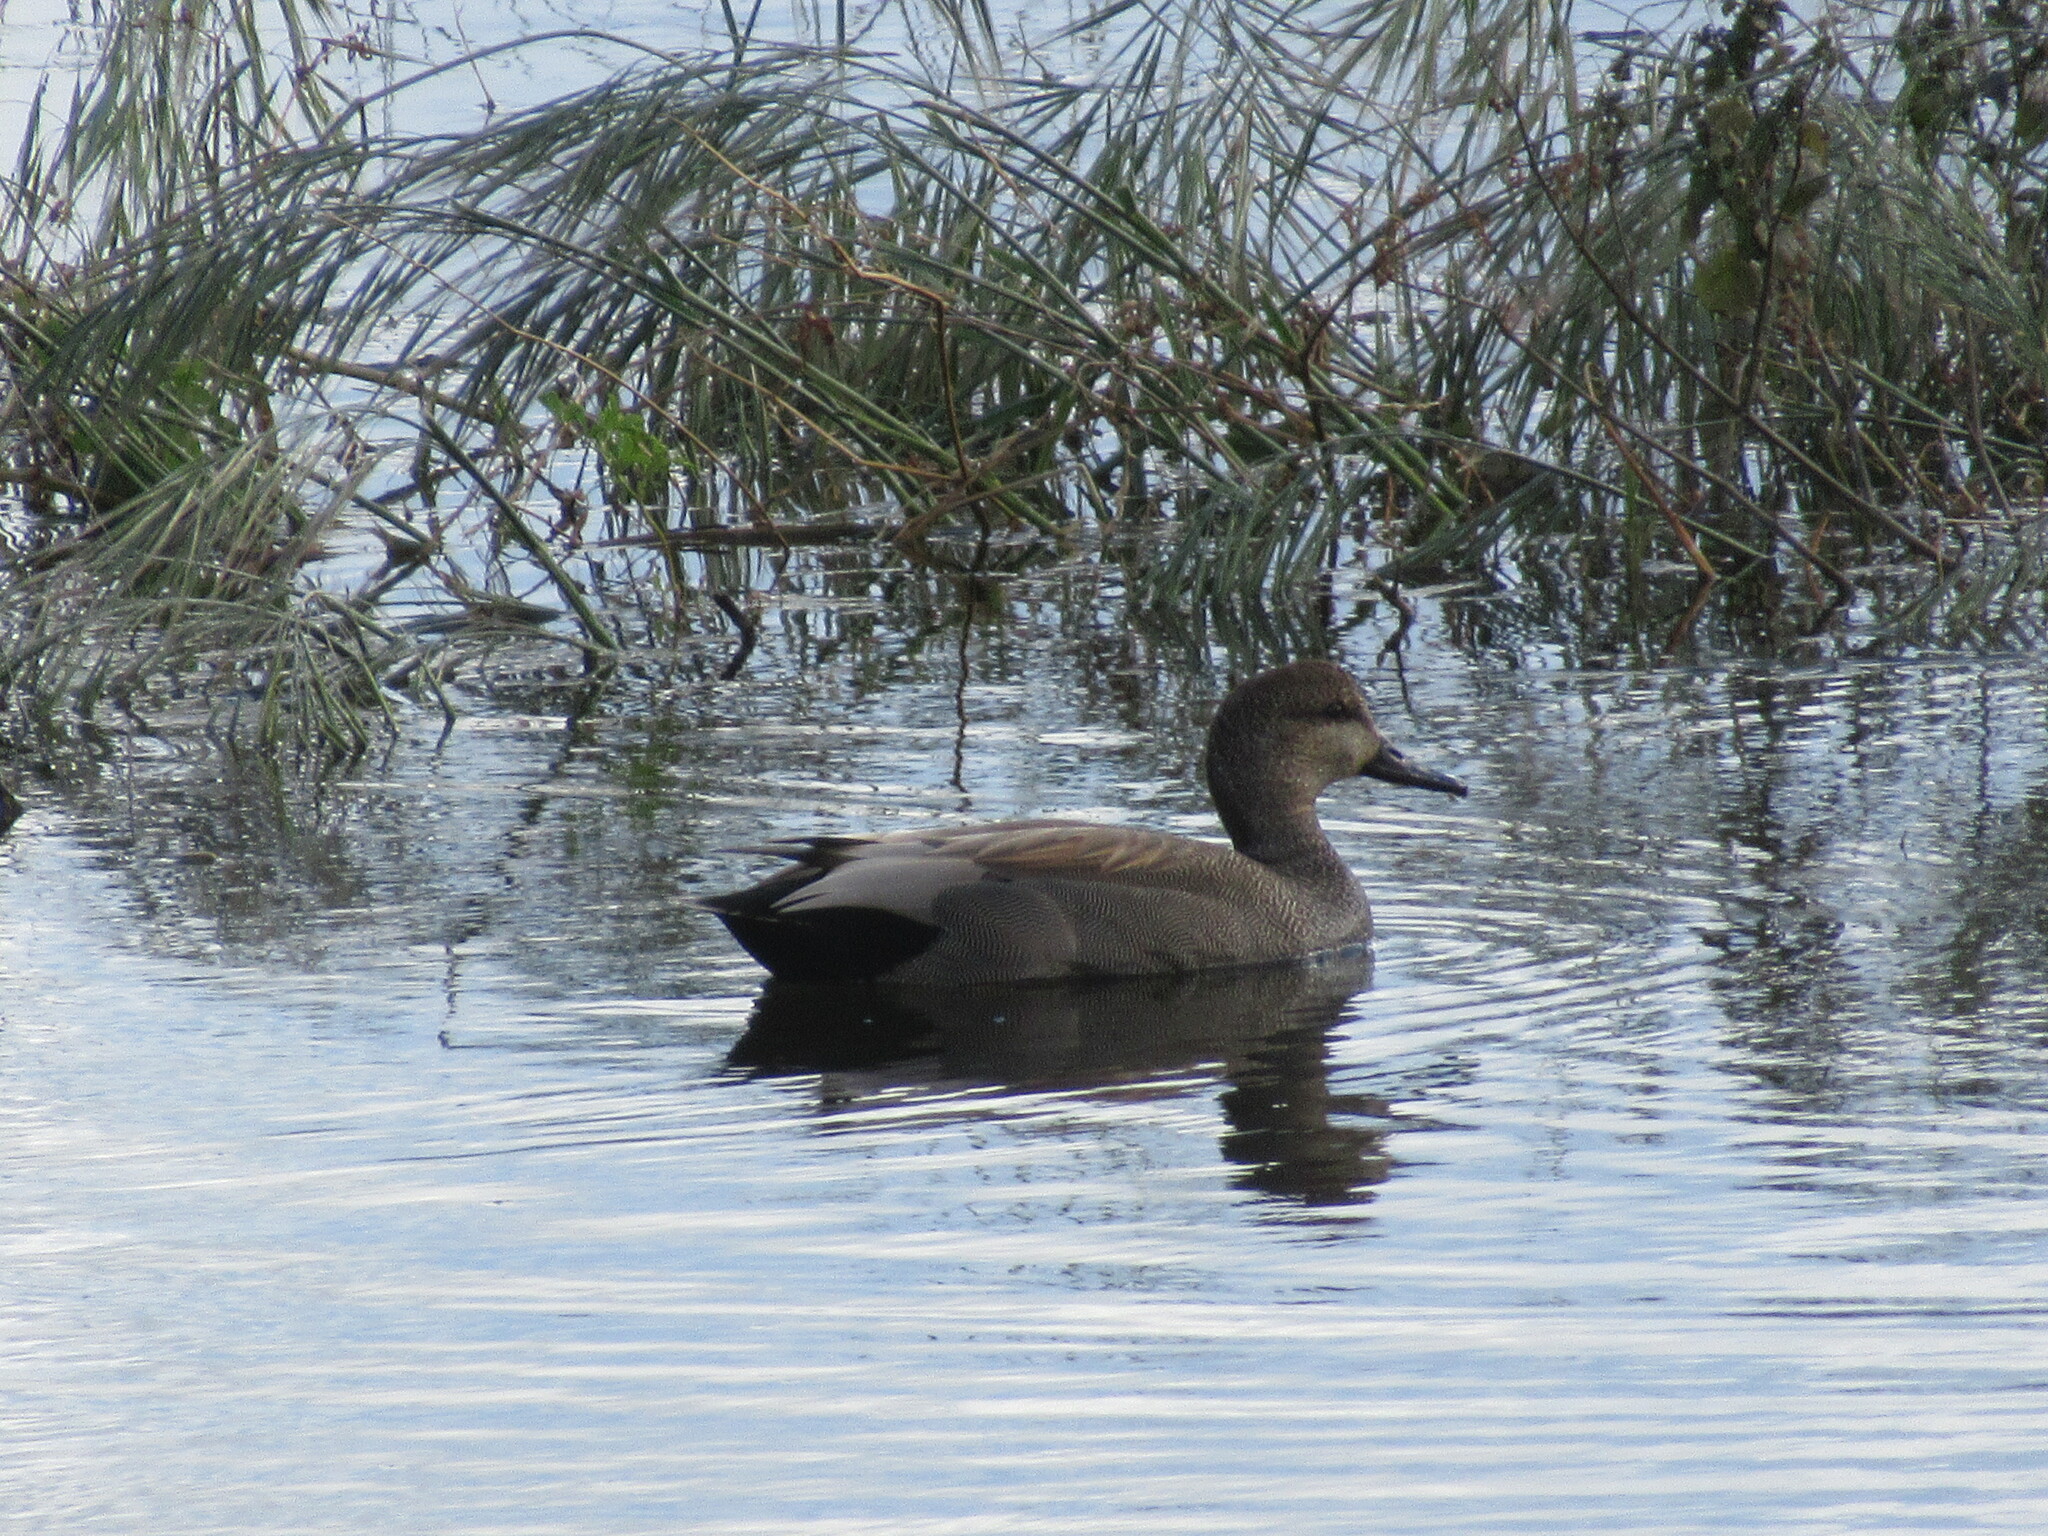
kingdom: Animalia
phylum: Chordata
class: Aves
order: Anseriformes
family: Anatidae
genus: Mareca
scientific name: Mareca strepera
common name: Gadwall
